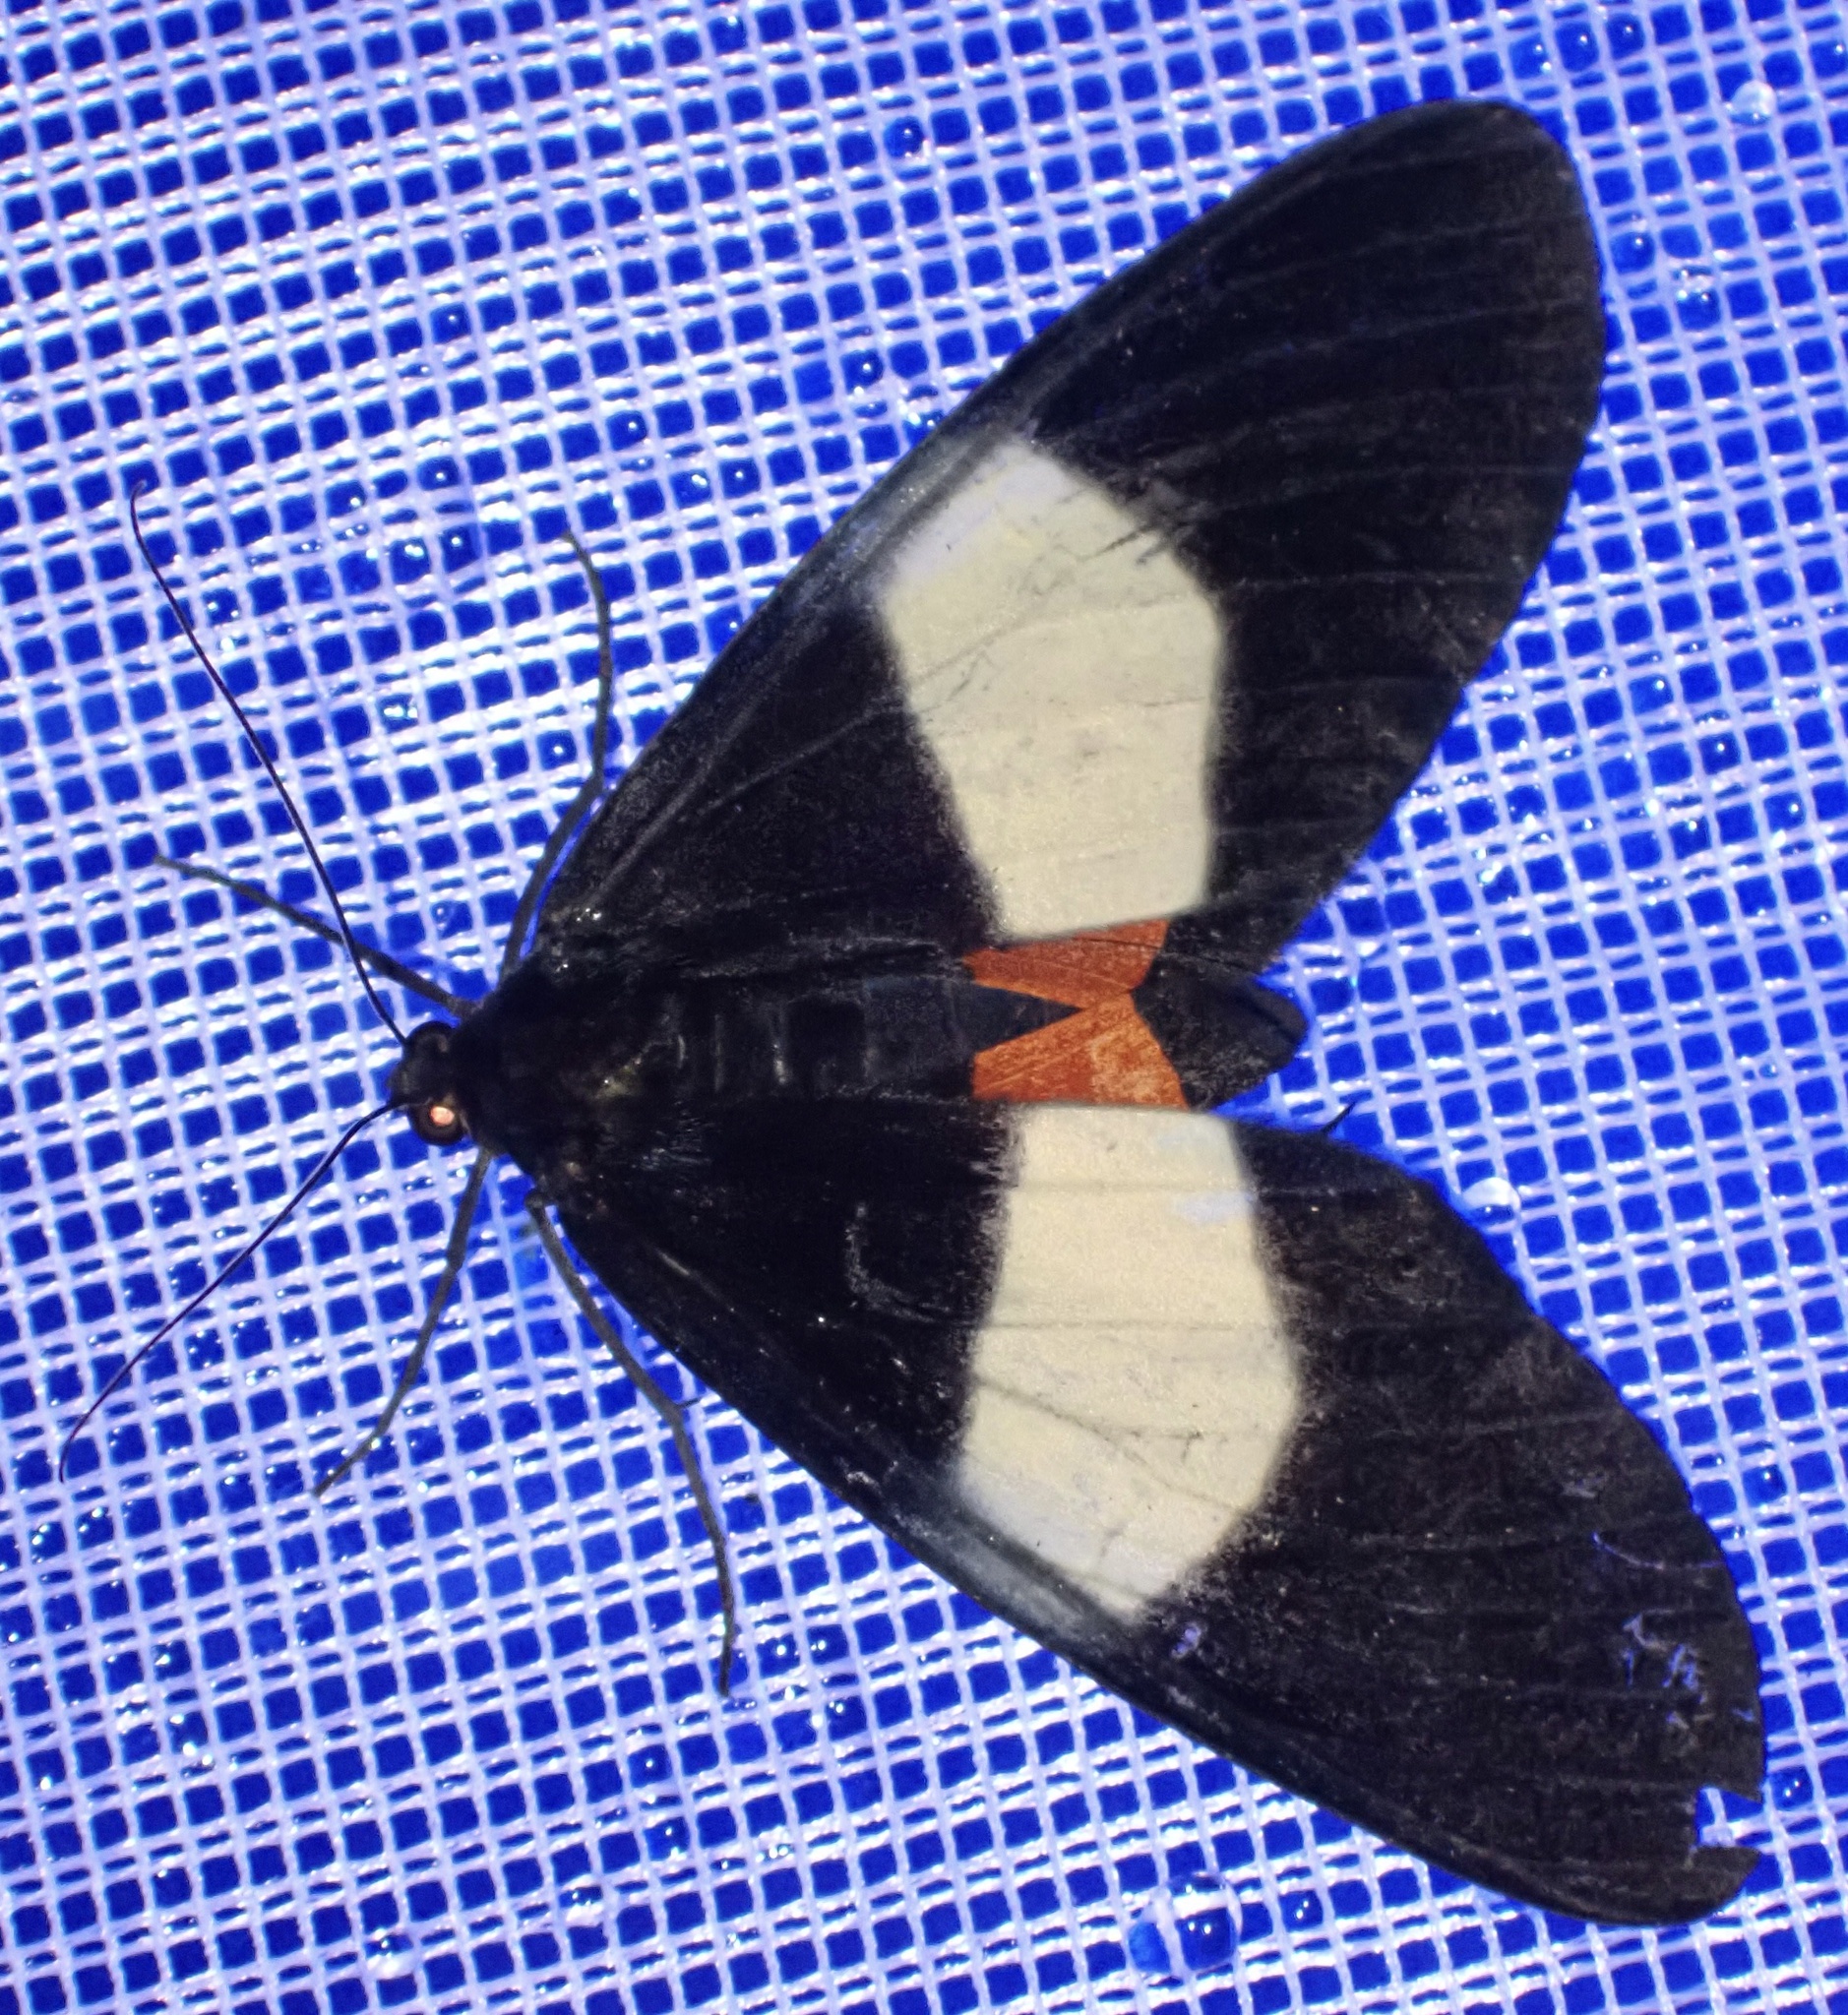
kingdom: Animalia
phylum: Arthropoda
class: Insecta
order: Lepidoptera
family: Geometridae
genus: Eumilionia
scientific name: Eumilionia mediofasciata
